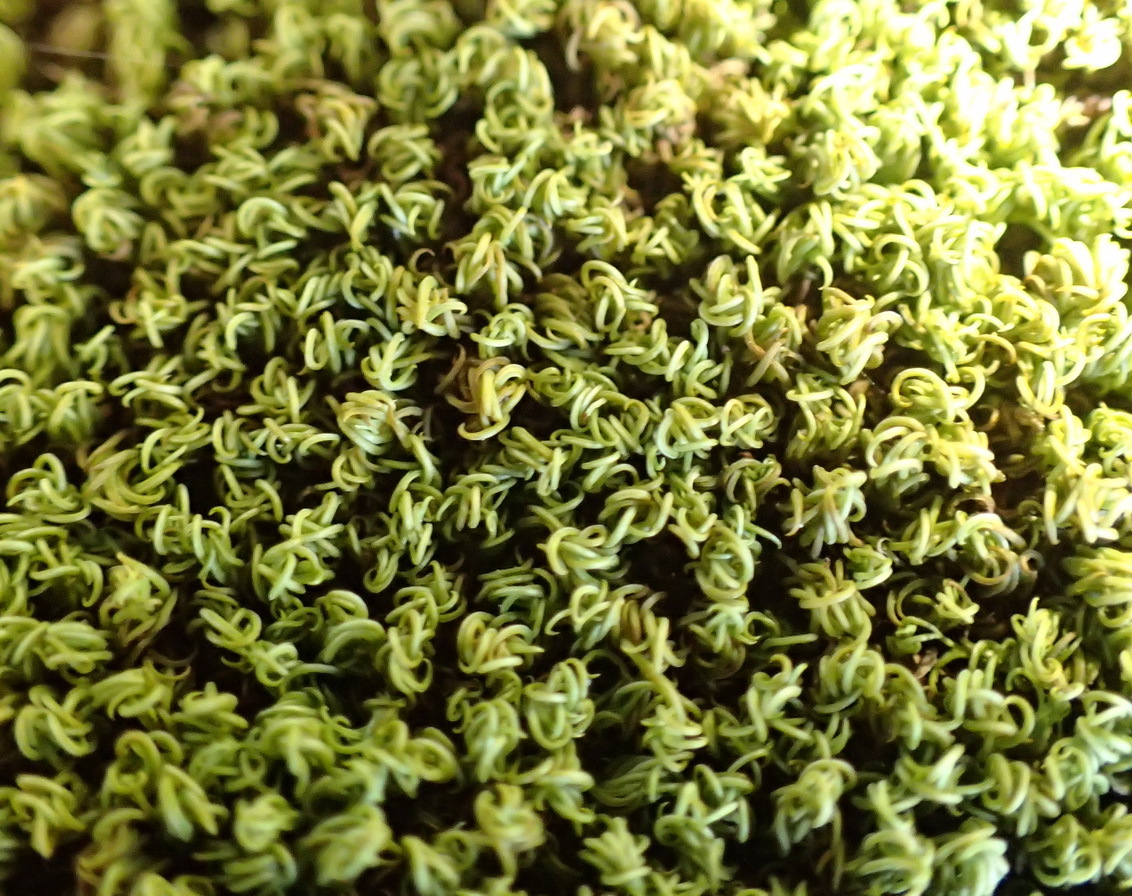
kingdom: Plantae
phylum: Bryophyta
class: Bryopsida
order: Pottiales
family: Pottiaceae
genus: Trichostomum
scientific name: Trichostomum brachydontium
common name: Variable crisp-moss
